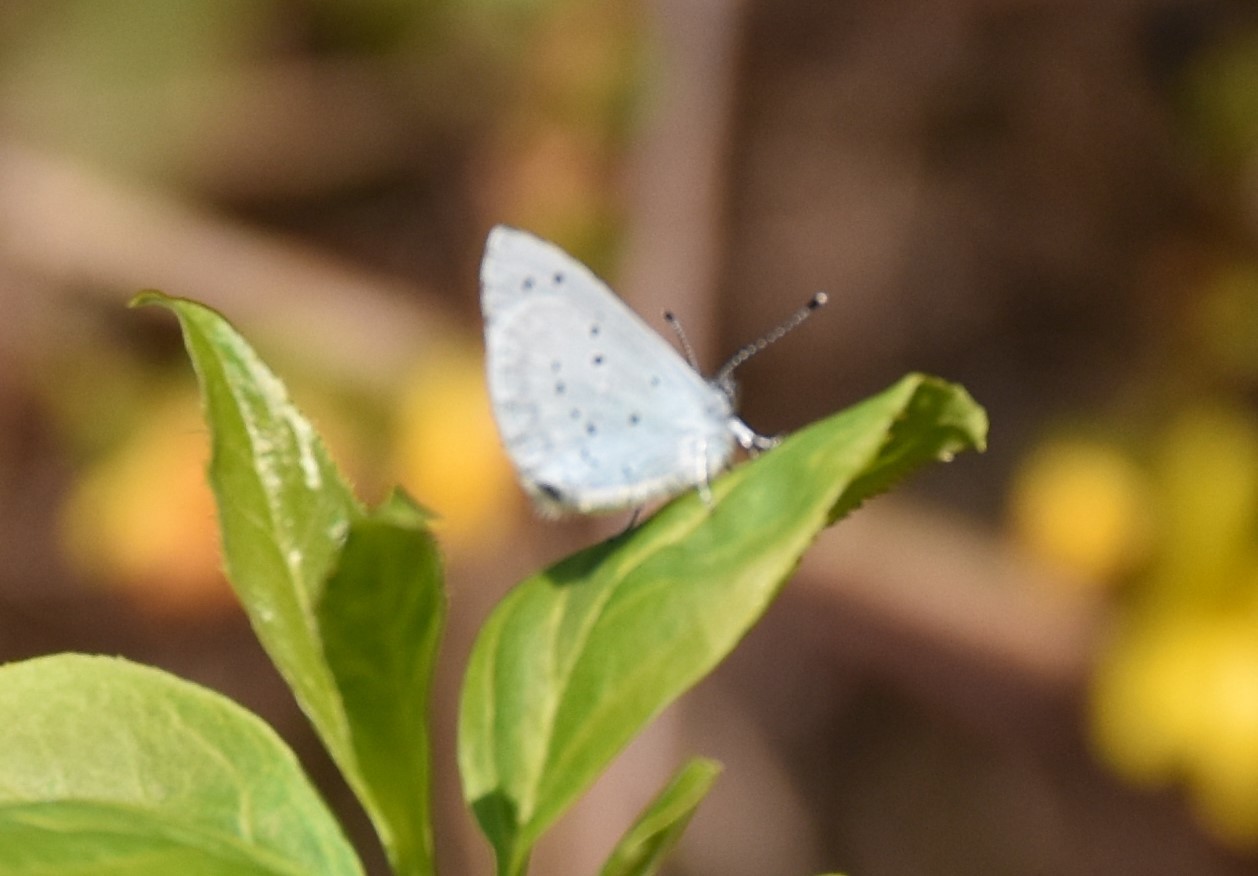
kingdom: Animalia
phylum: Arthropoda
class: Insecta
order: Lepidoptera
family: Lycaenidae
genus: Celastrina
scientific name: Celastrina argiolus
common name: Holly blue
